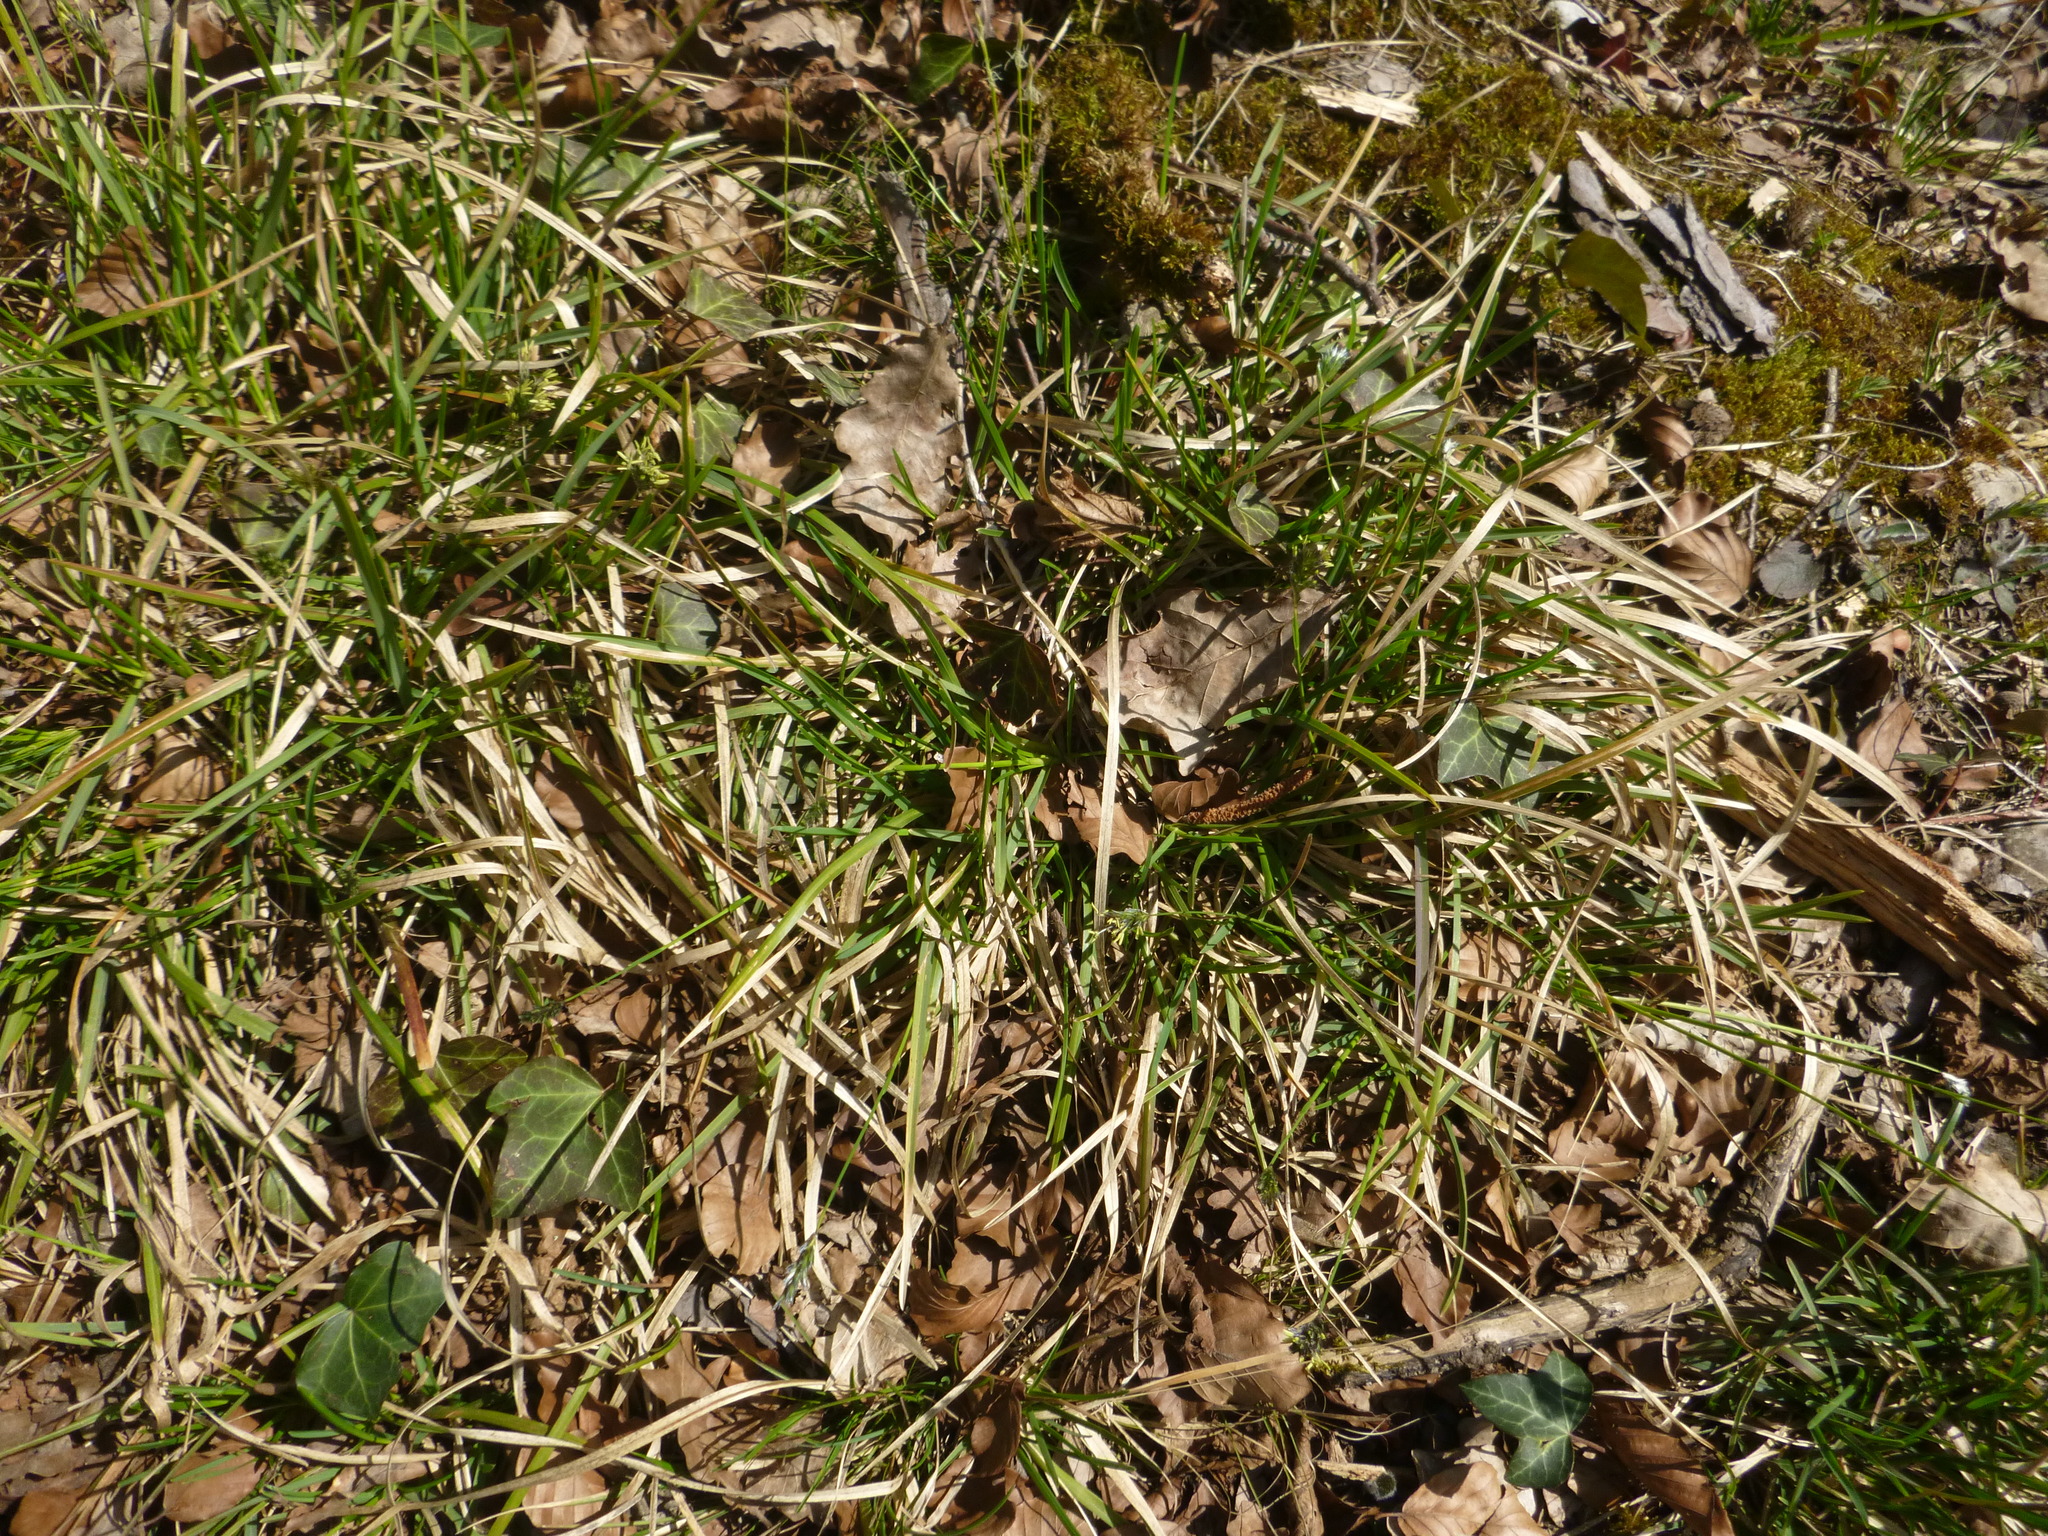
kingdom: Plantae
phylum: Tracheophyta
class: Liliopsida
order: Poales
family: Poaceae
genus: Sesleria
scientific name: Sesleria caerulea
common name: Blue moor-grass
